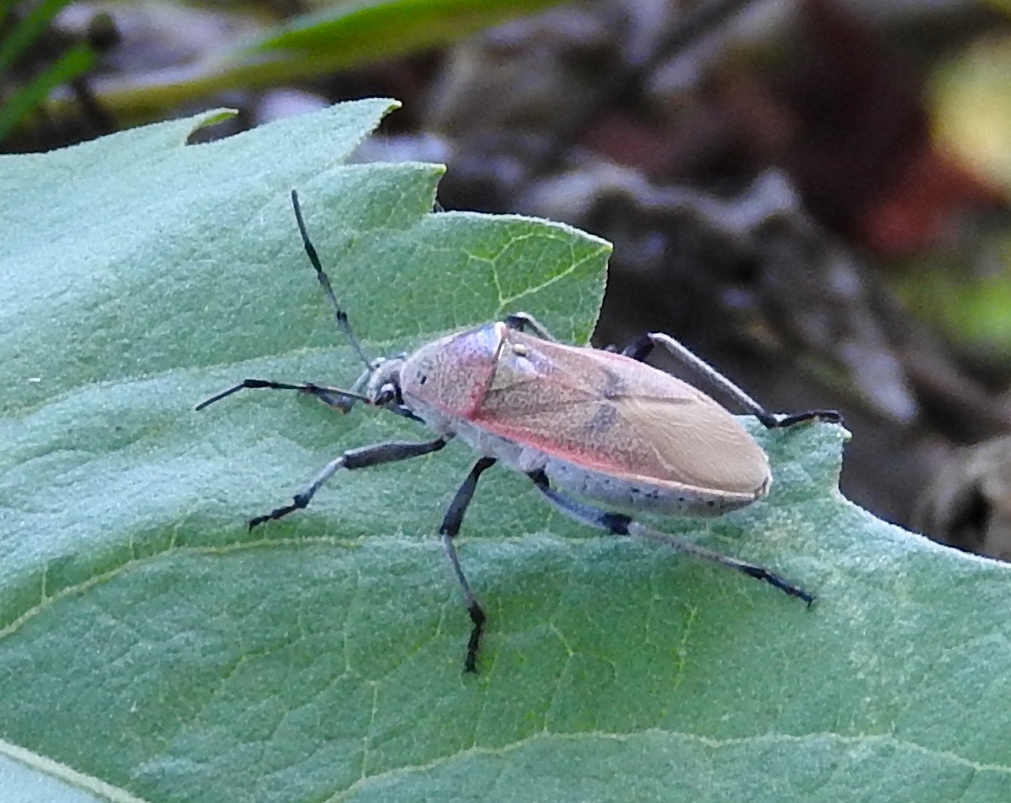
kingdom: Animalia
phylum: Arthropoda
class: Insecta
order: Hemiptera
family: Largidae
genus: Largus
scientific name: Largus
